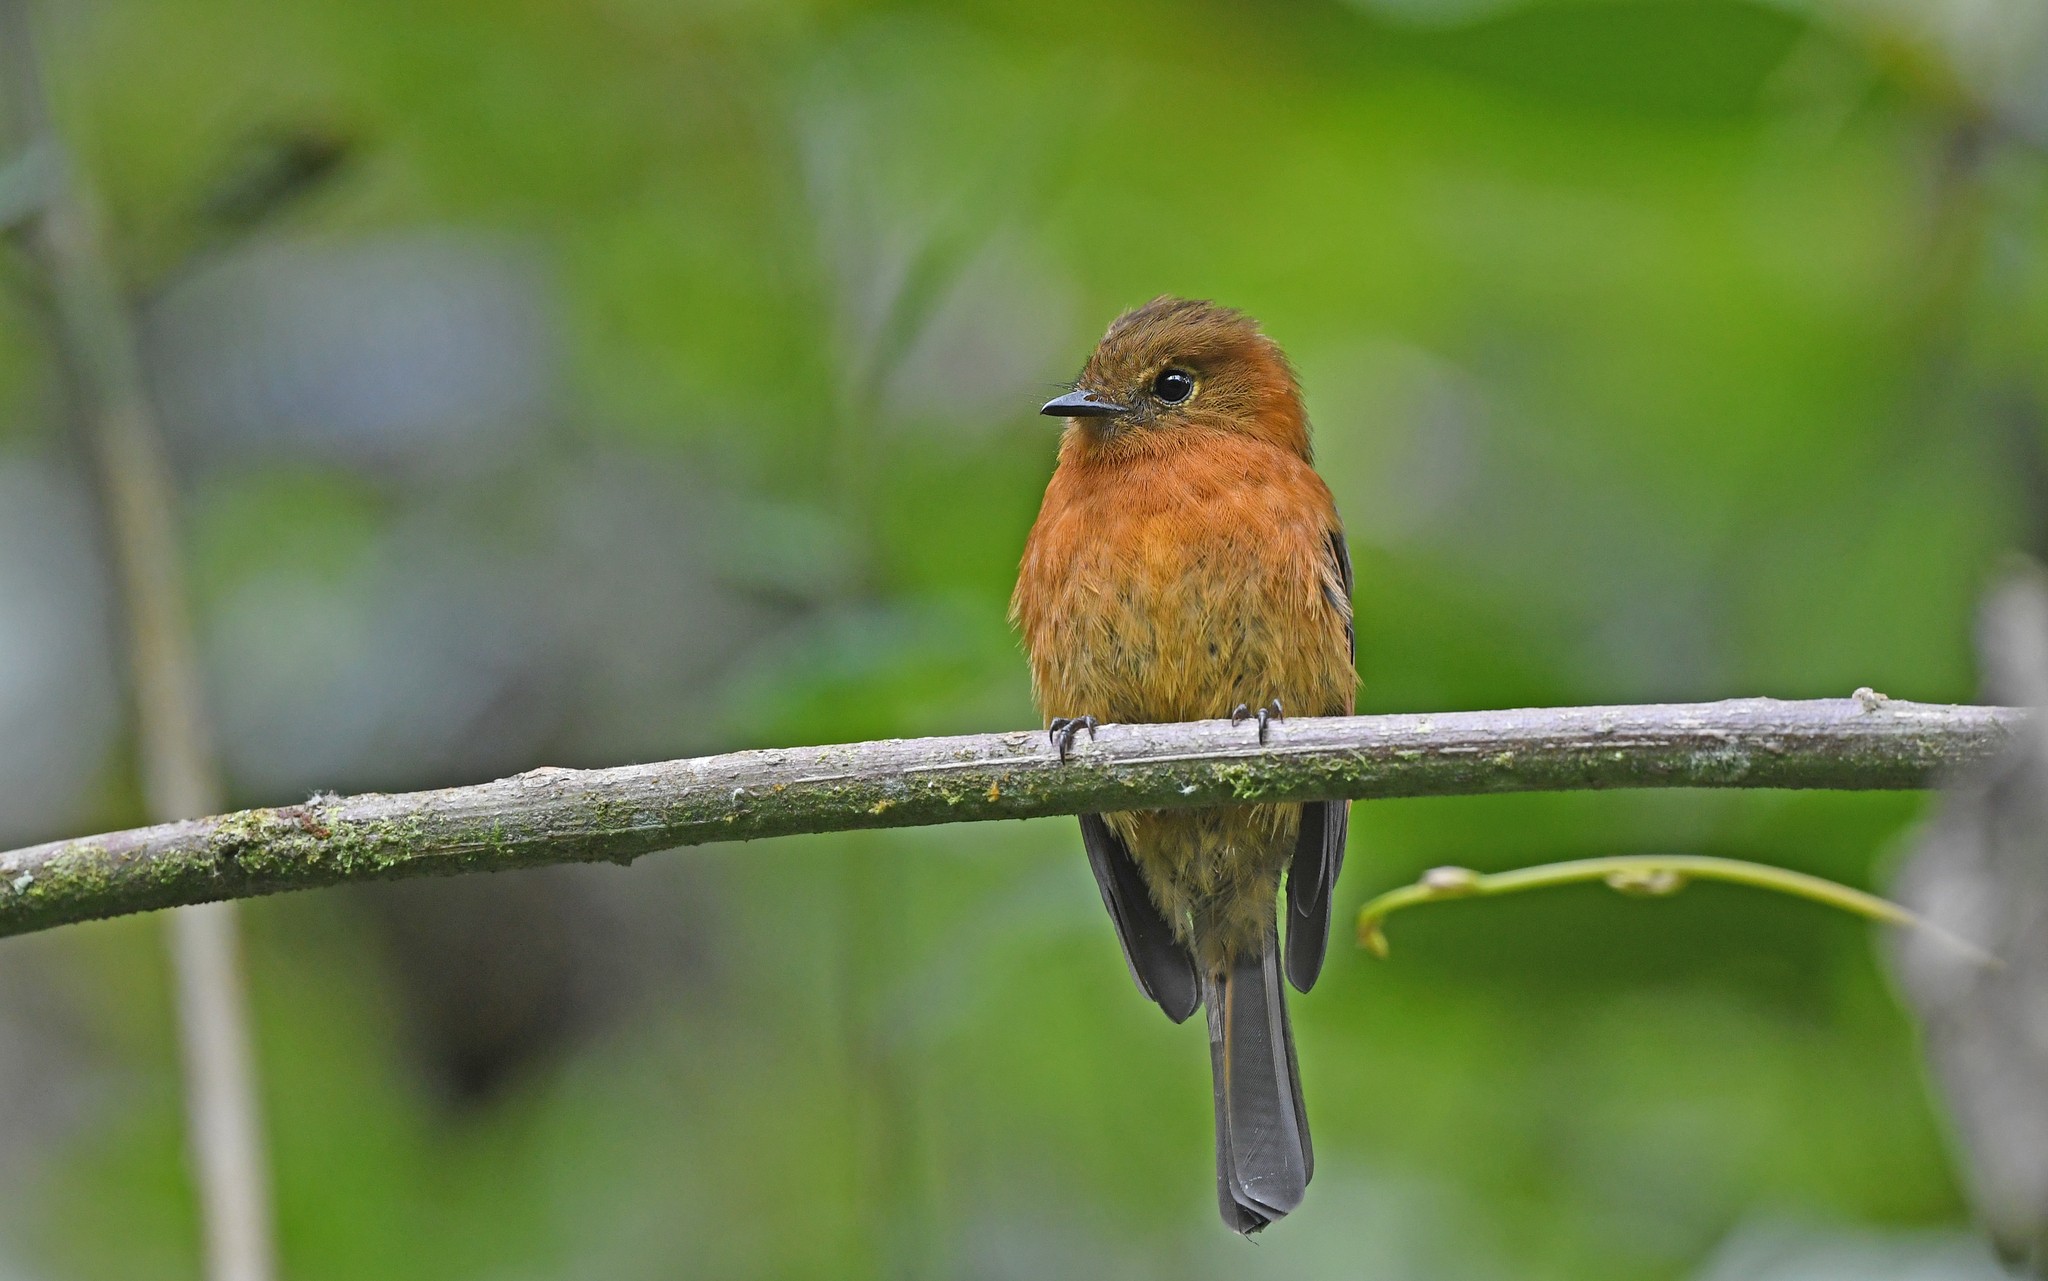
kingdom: Animalia
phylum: Chordata
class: Aves
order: Passeriformes
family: Tyrannidae
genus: Pyrrhomyias
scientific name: Pyrrhomyias cinnamomeus
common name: Cinnamon flycatcher
